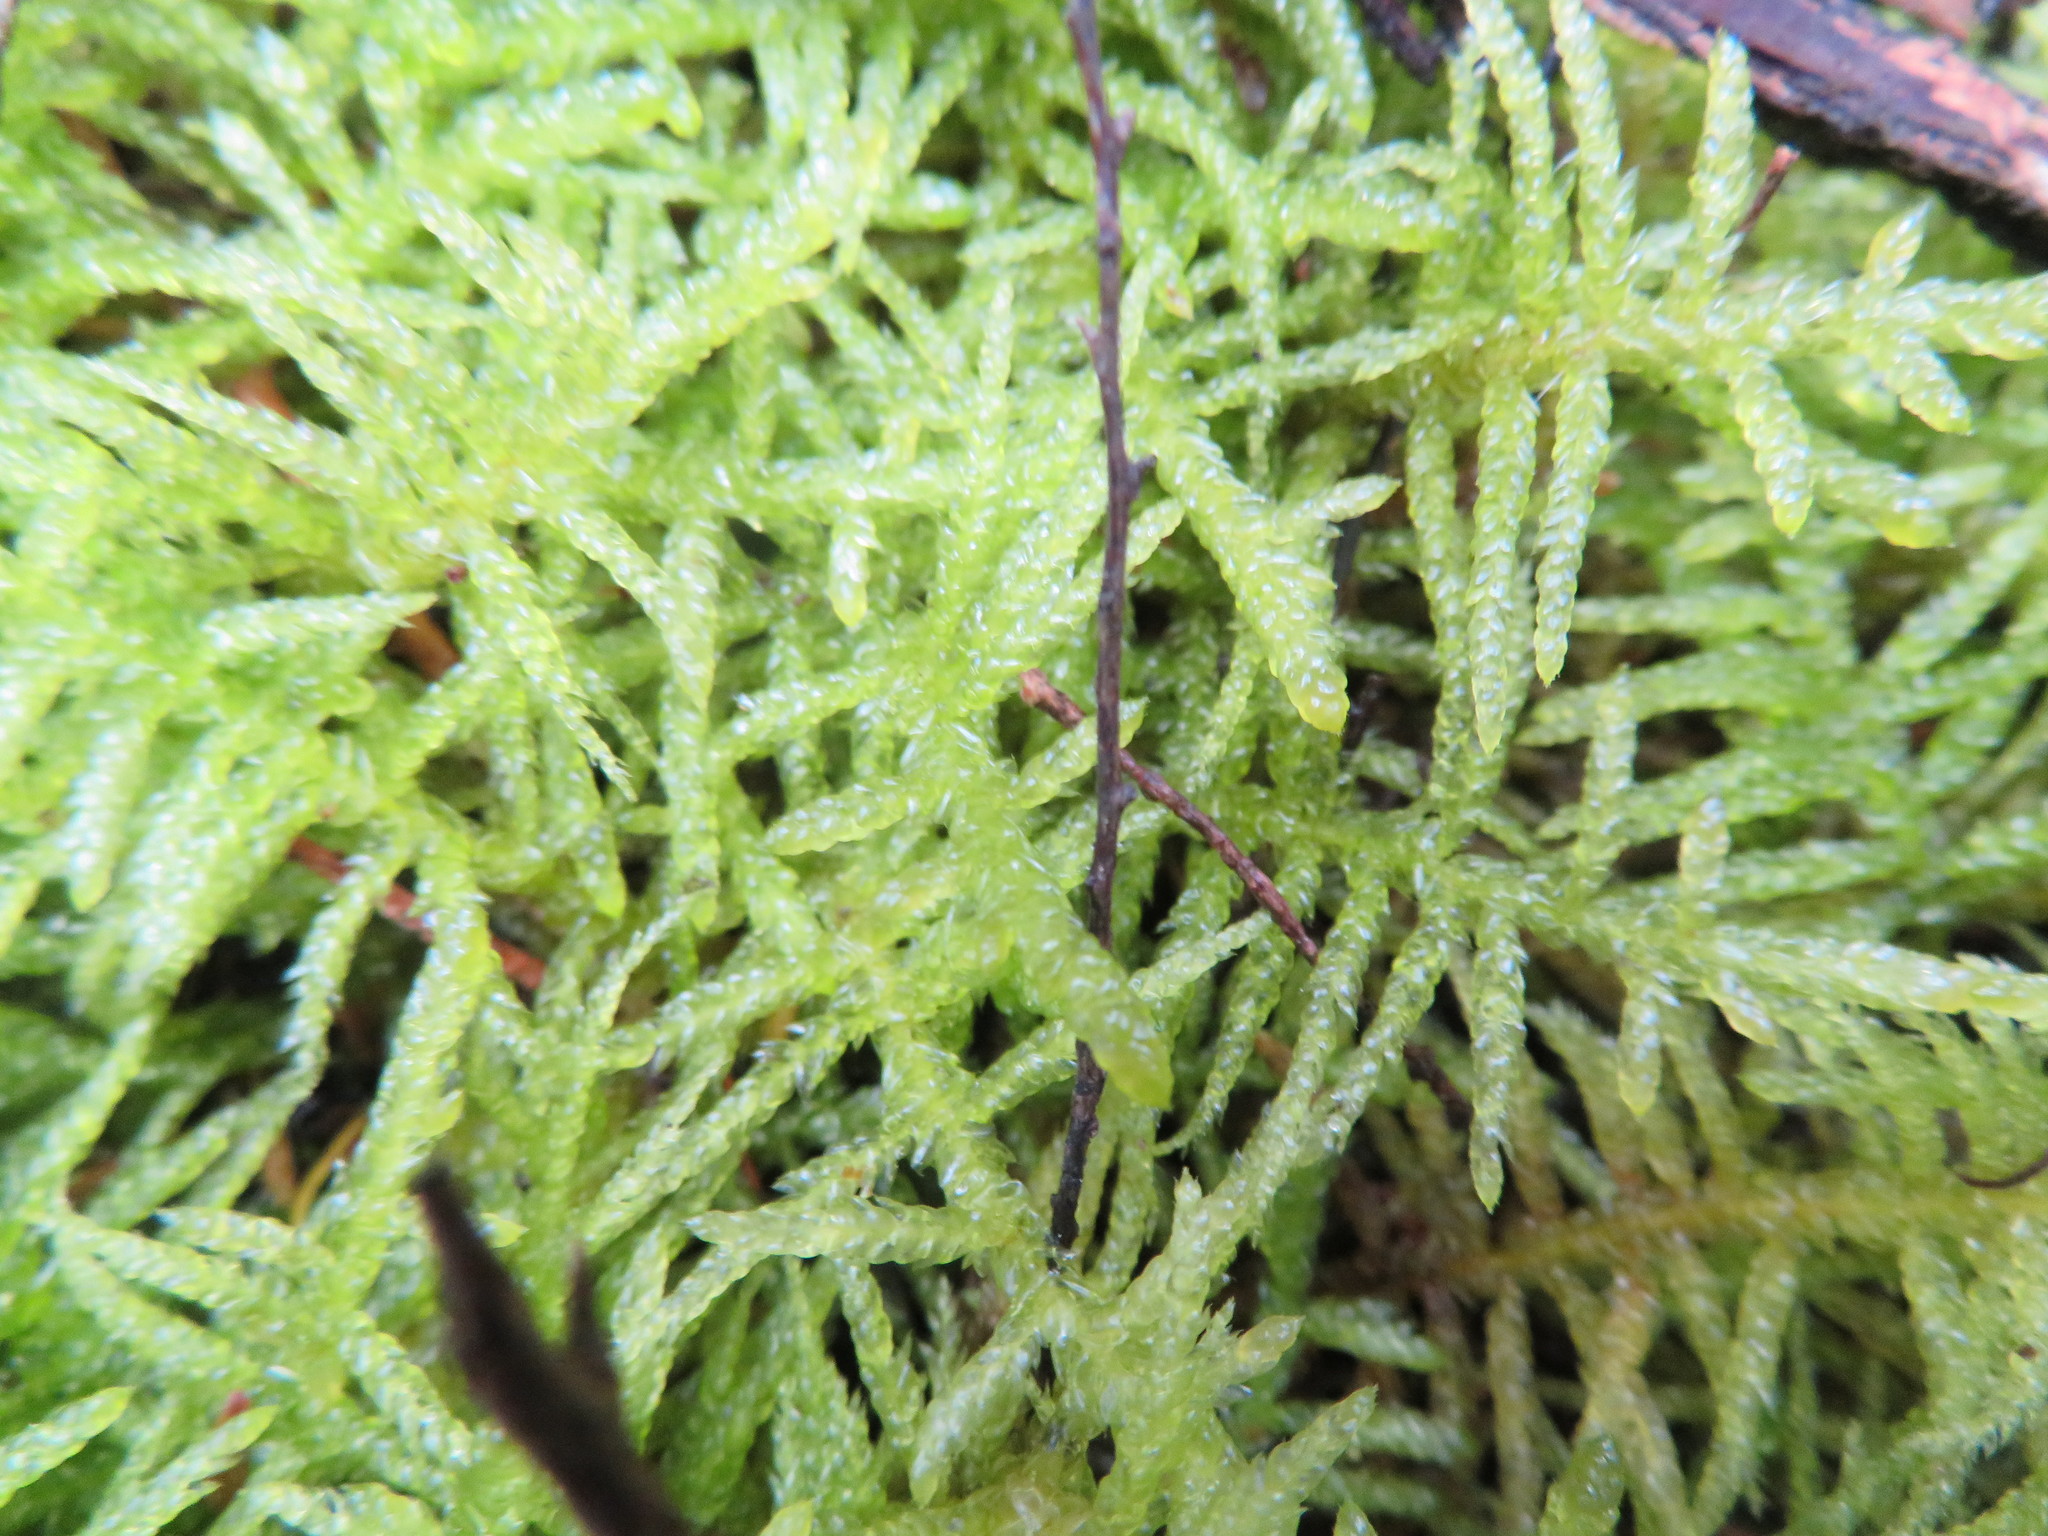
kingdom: Plantae
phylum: Bryophyta
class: Bryopsida
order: Hypnales
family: Brachytheciaceae
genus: Pseudoscleropodium
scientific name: Pseudoscleropodium purum
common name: Neat feather-moss
